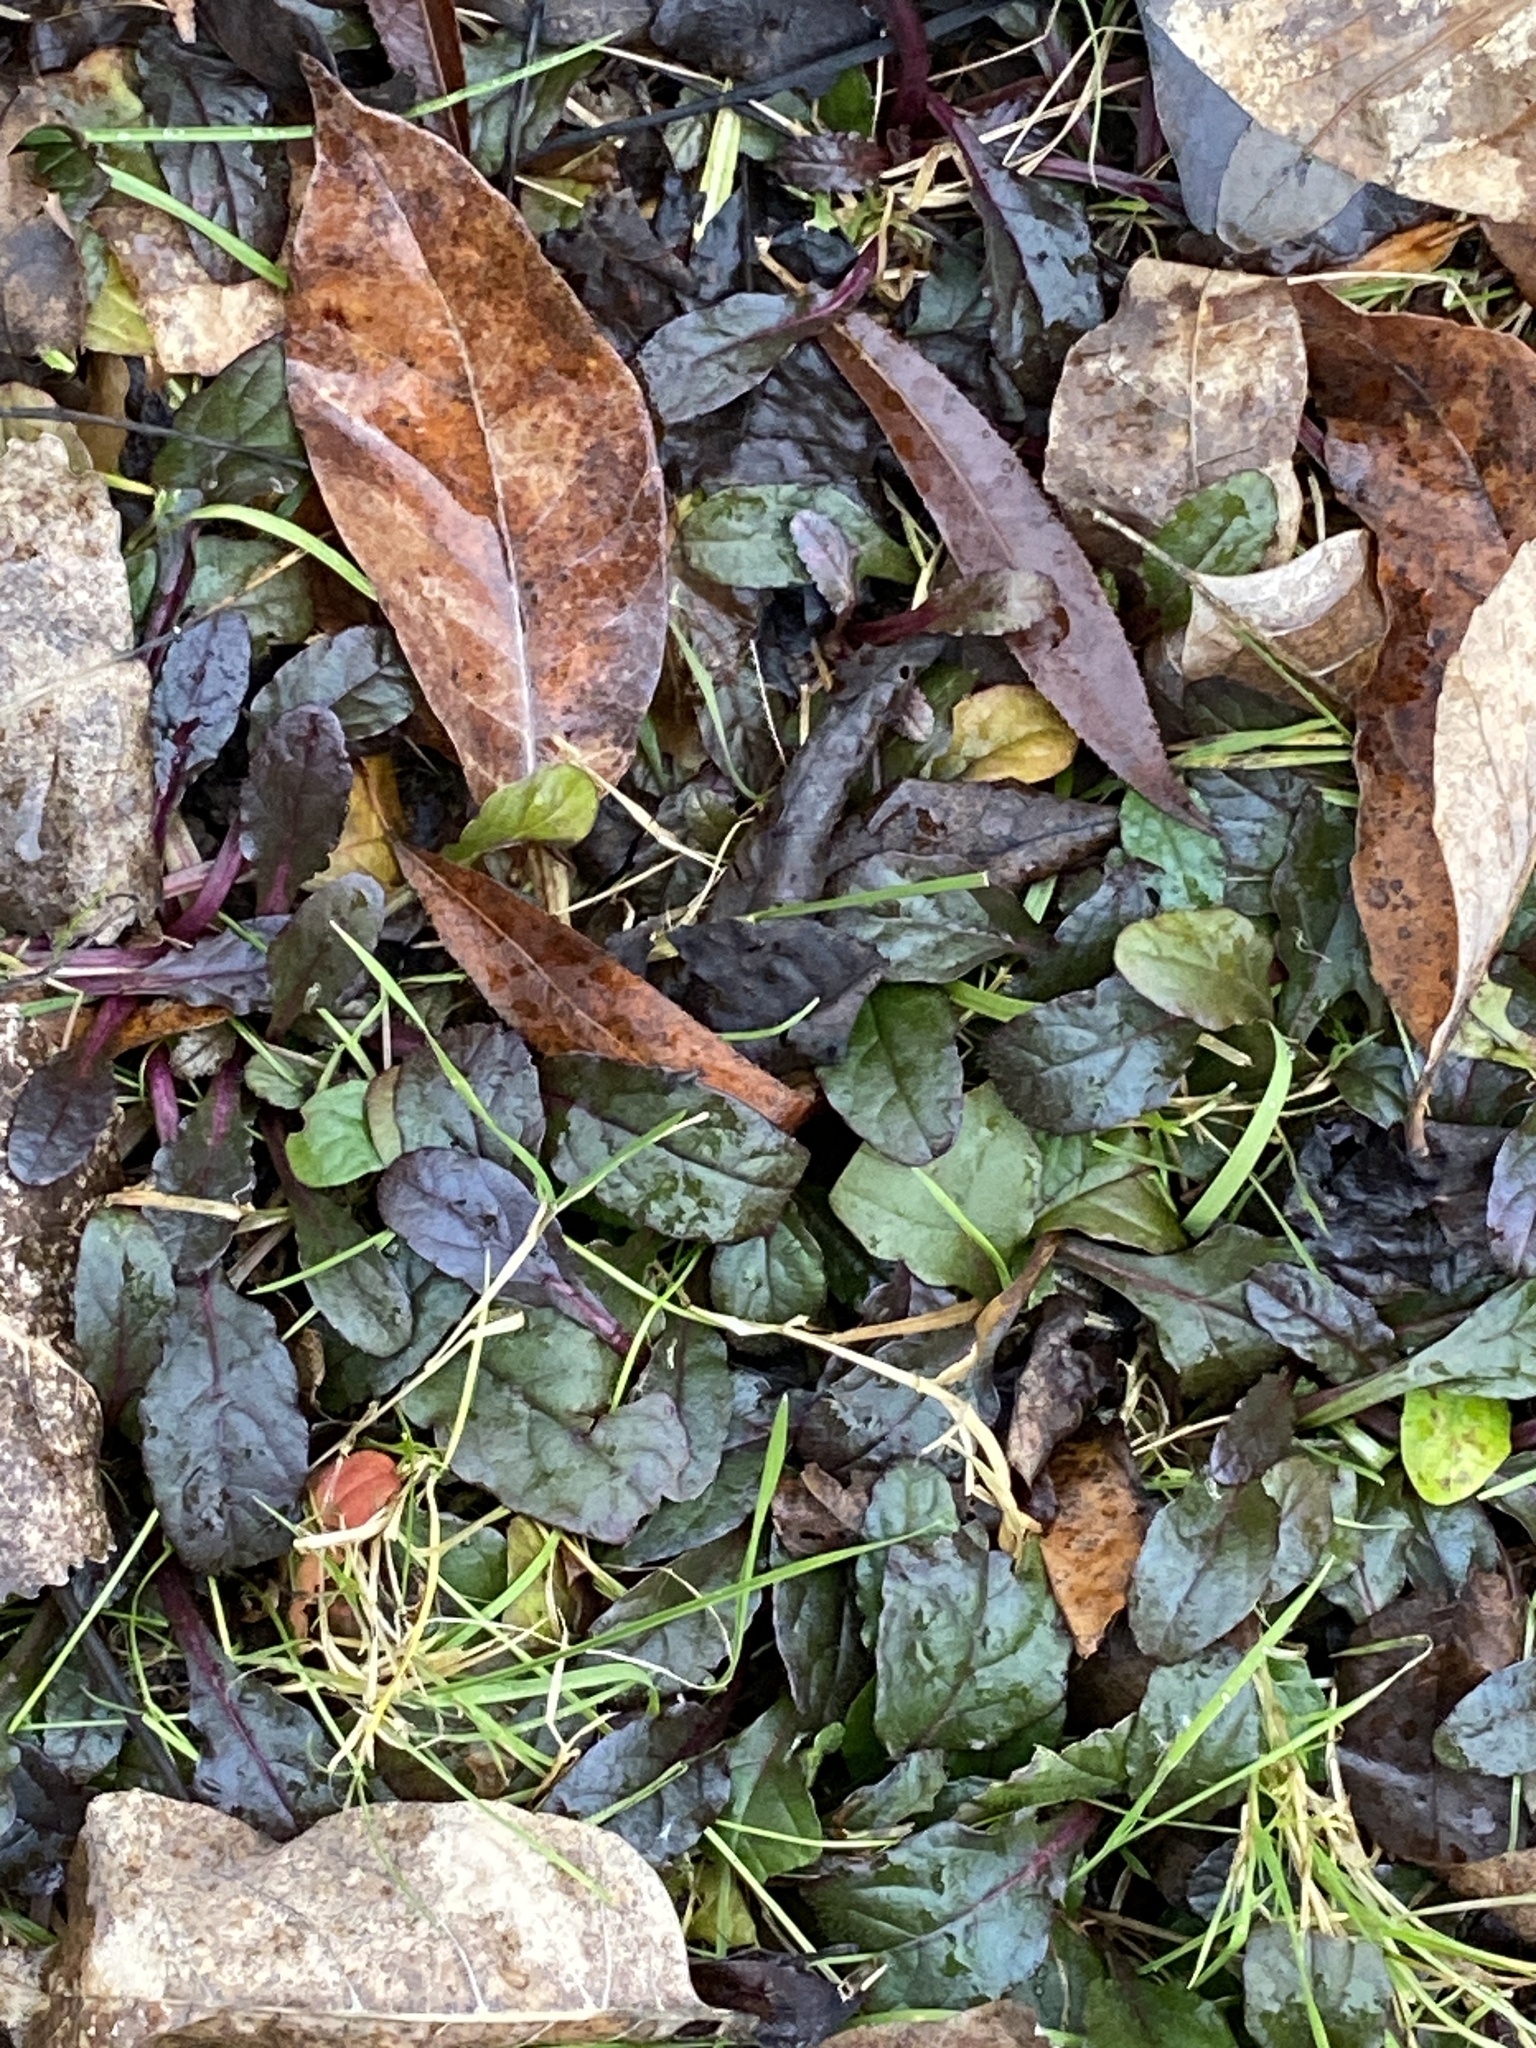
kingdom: Plantae
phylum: Tracheophyta
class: Magnoliopsida
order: Lamiales
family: Lamiaceae
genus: Ajuga
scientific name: Ajuga reptans
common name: Bugle
